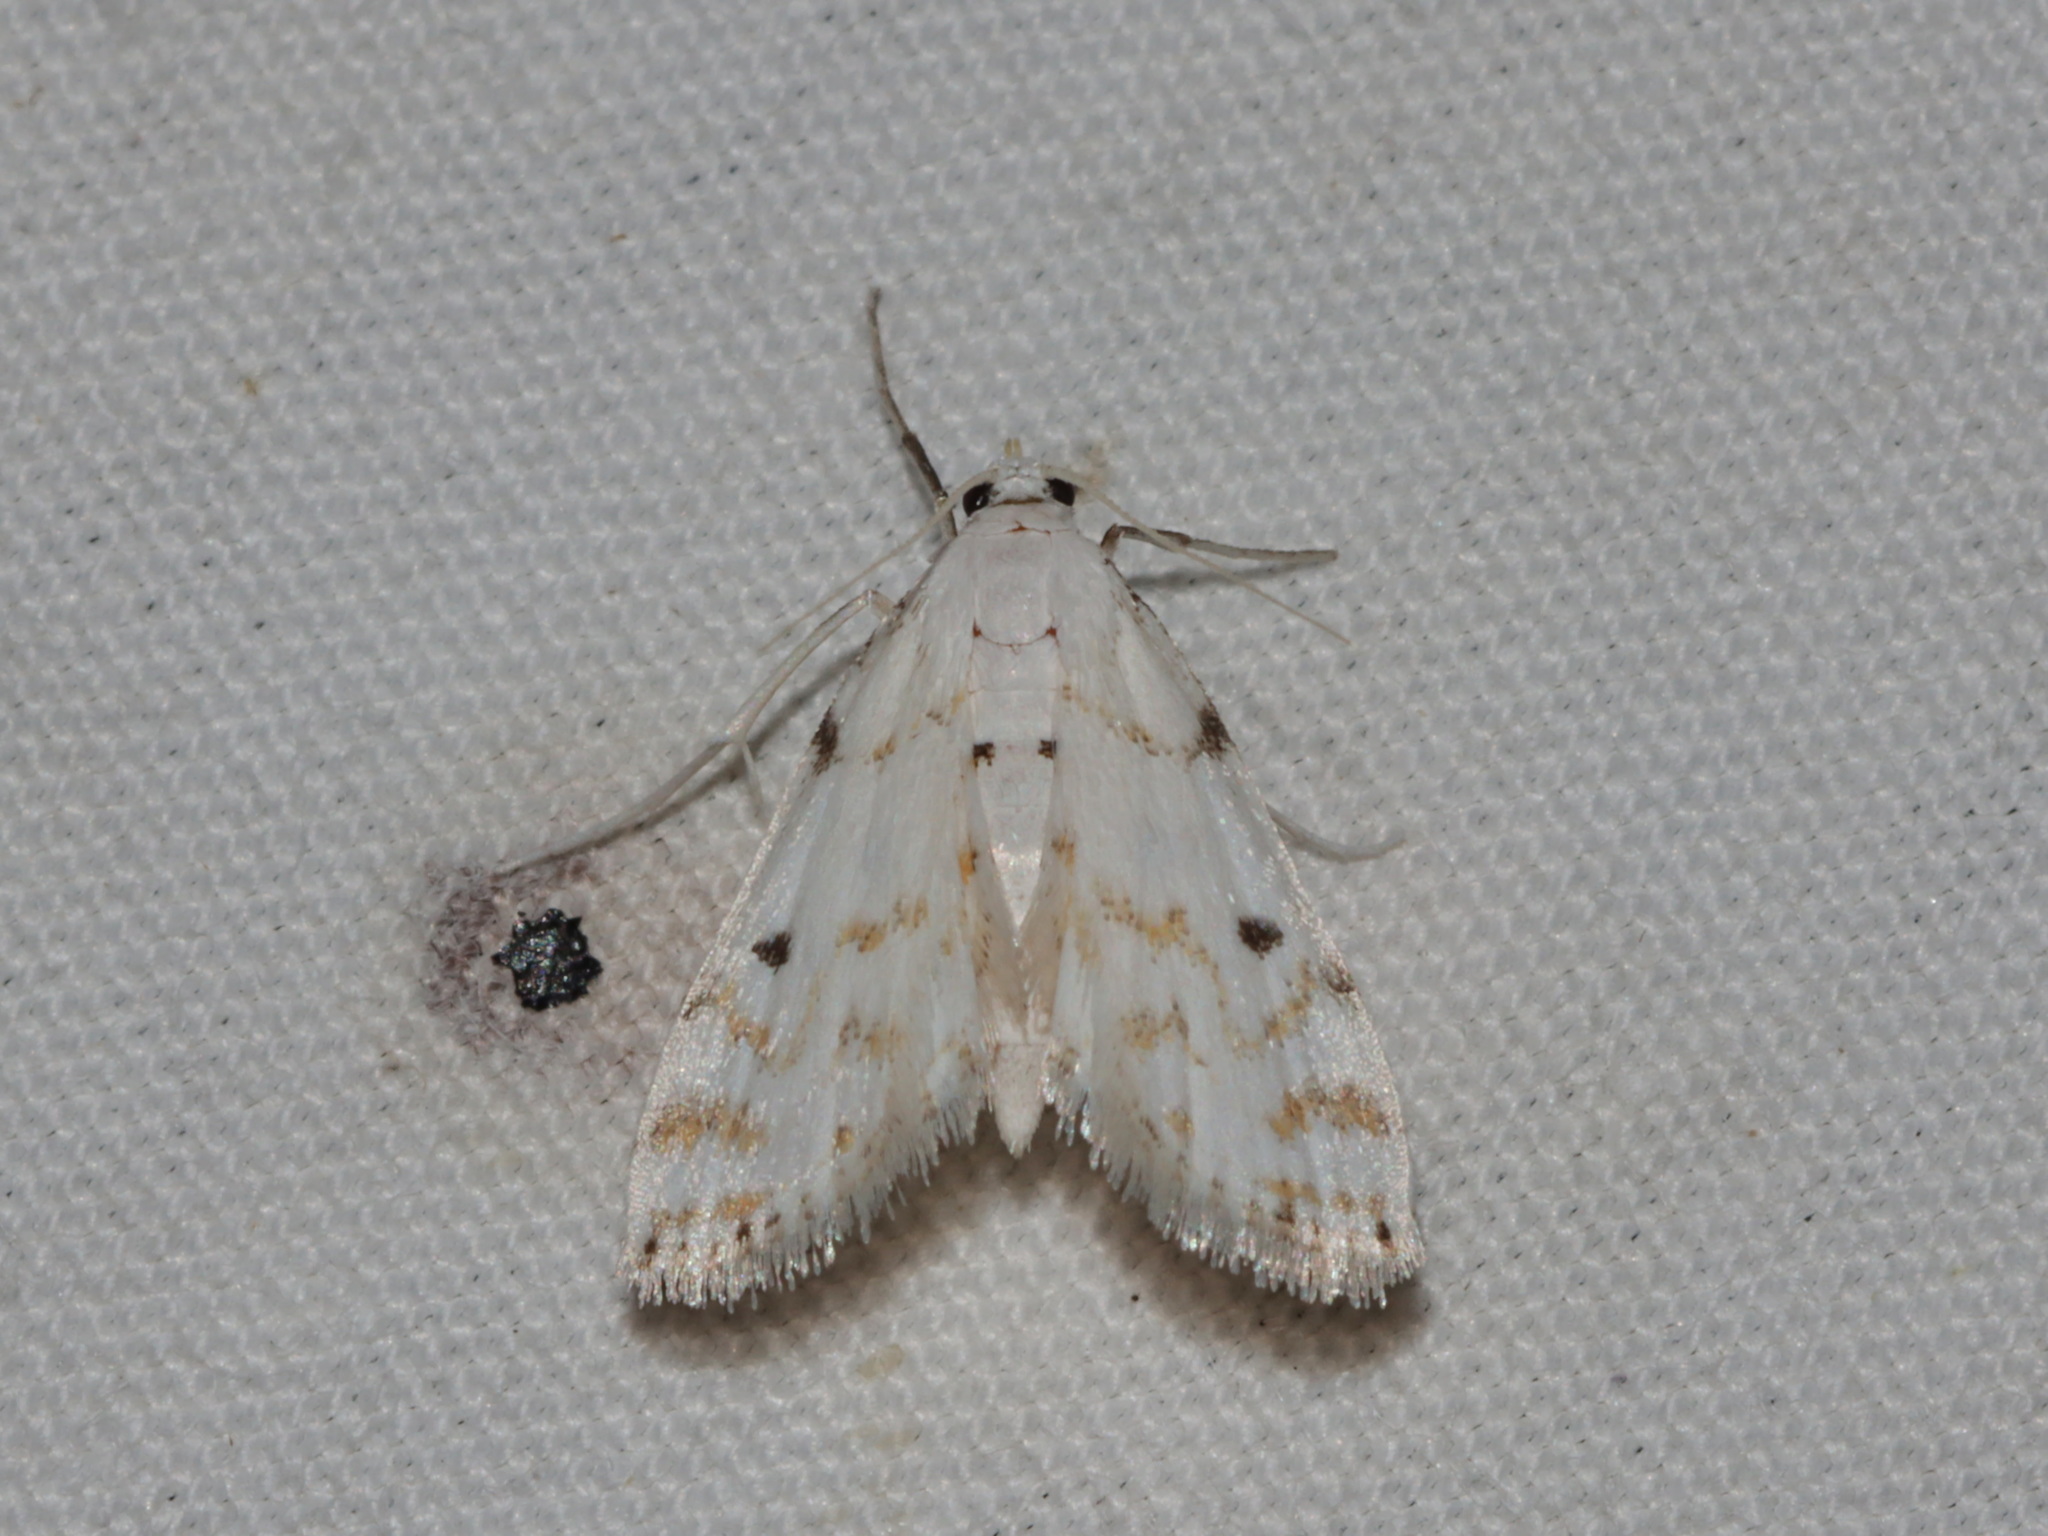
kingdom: Animalia
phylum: Arthropoda
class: Insecta
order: Lepidoptera
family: Crambidae
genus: Parapoynx
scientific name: Parapoynx medusalis
